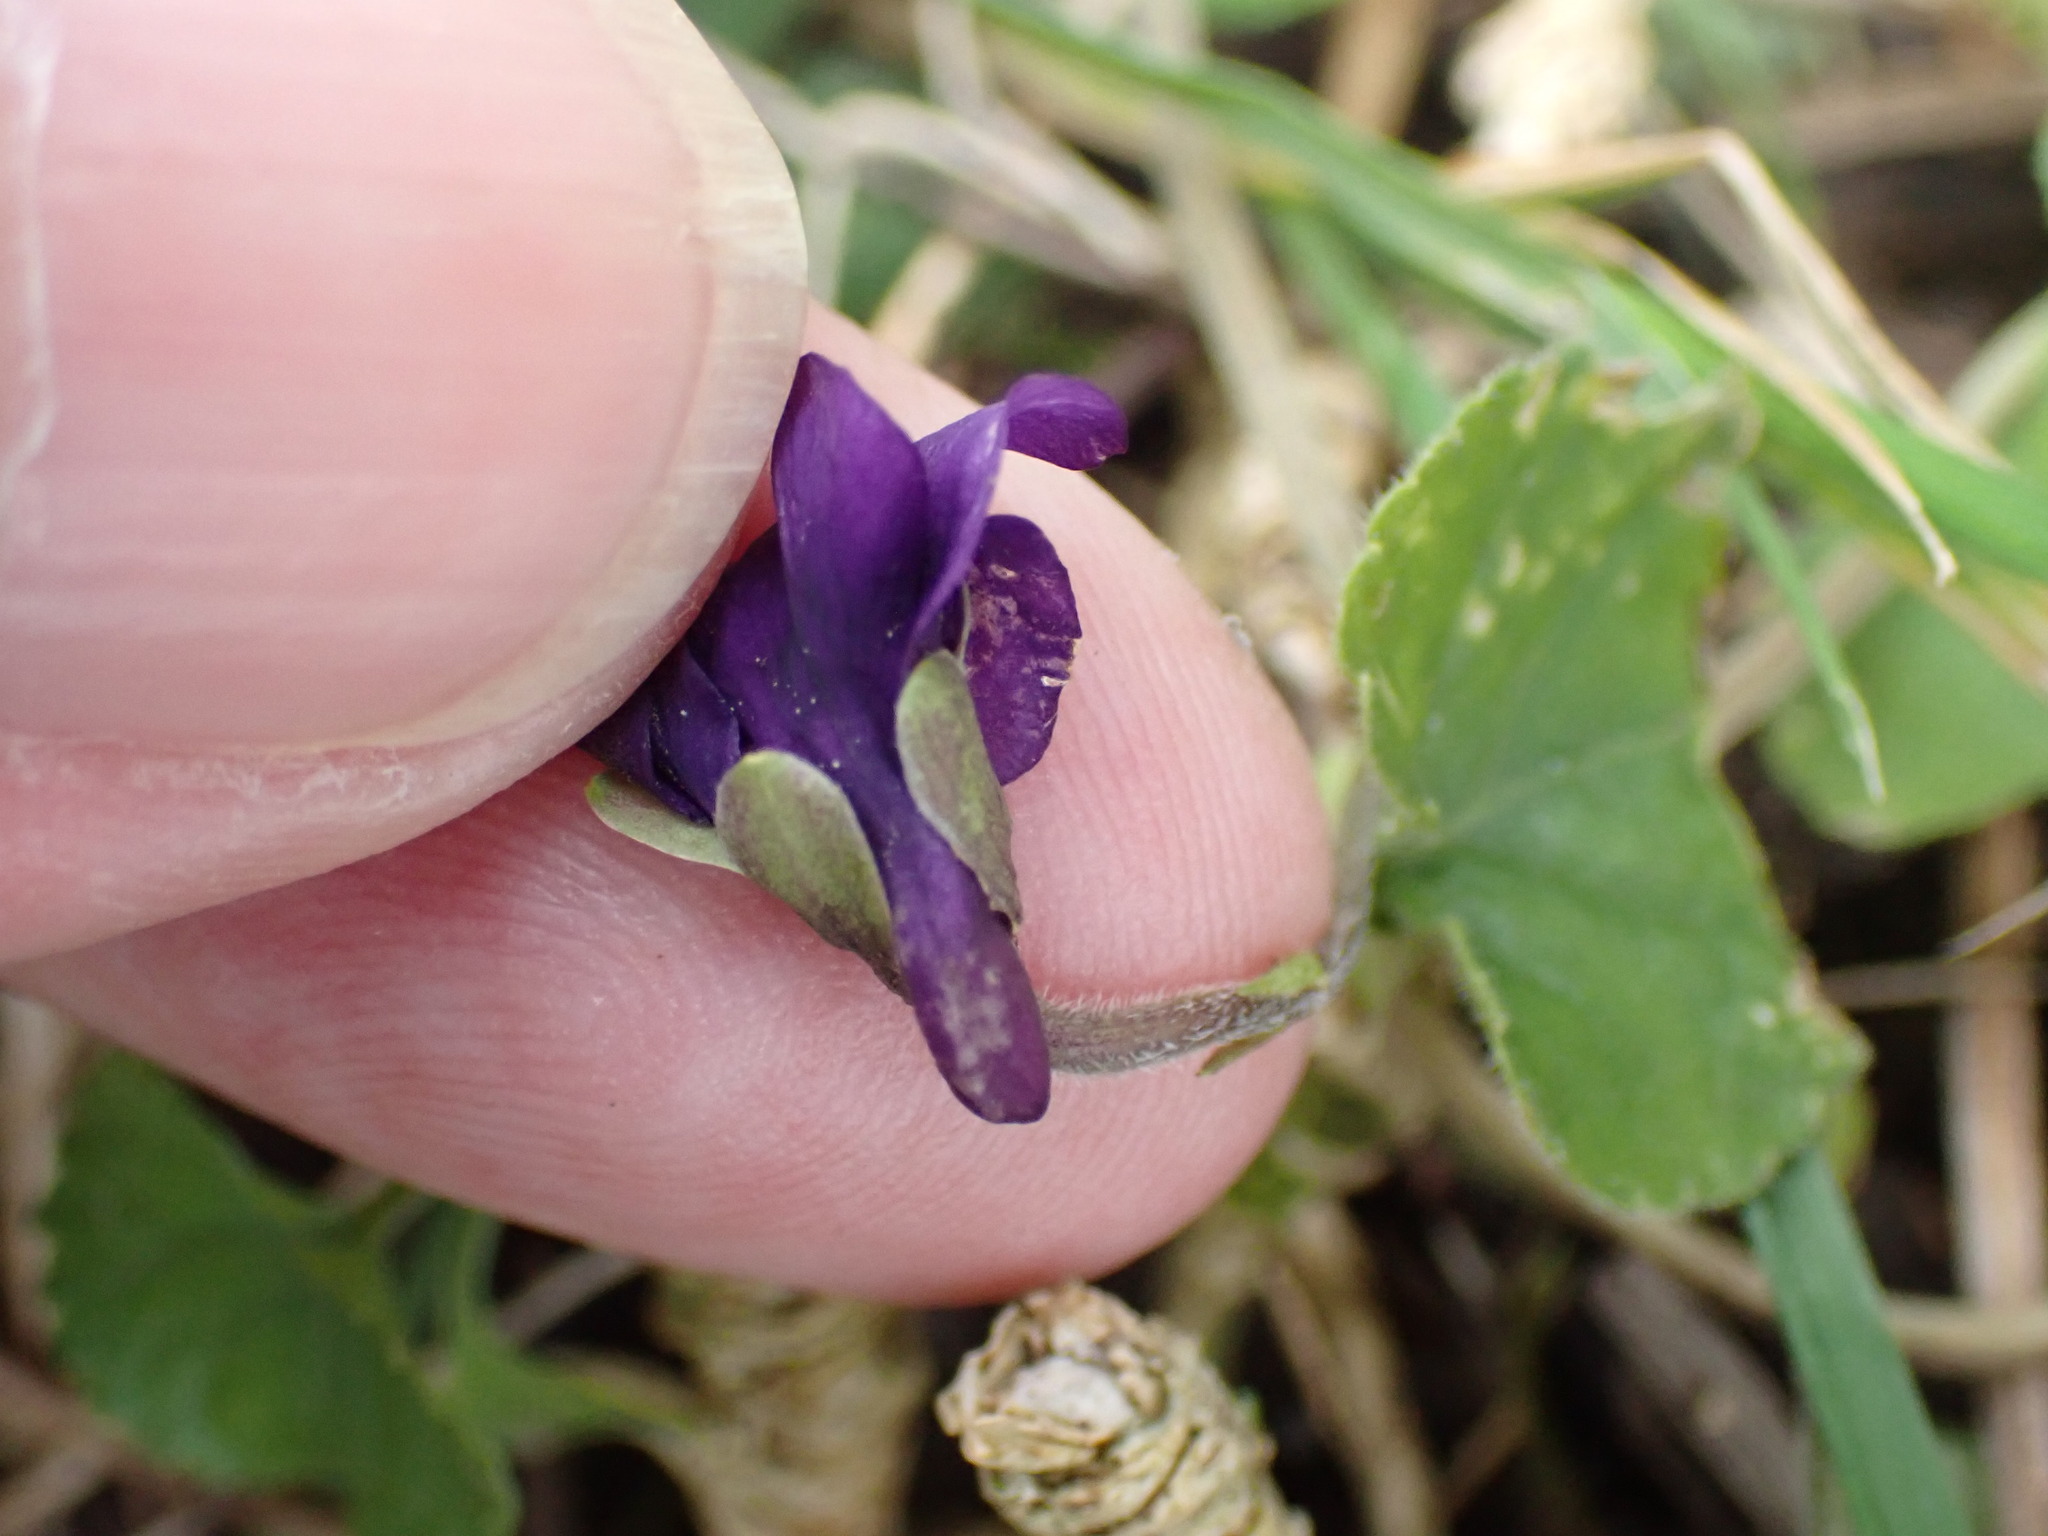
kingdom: Plantae
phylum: Tracheophyta
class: Magnoliopsida
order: Malpighiales
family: Violaceae
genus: Viola
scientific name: Viola odorata
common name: Sweet violet
